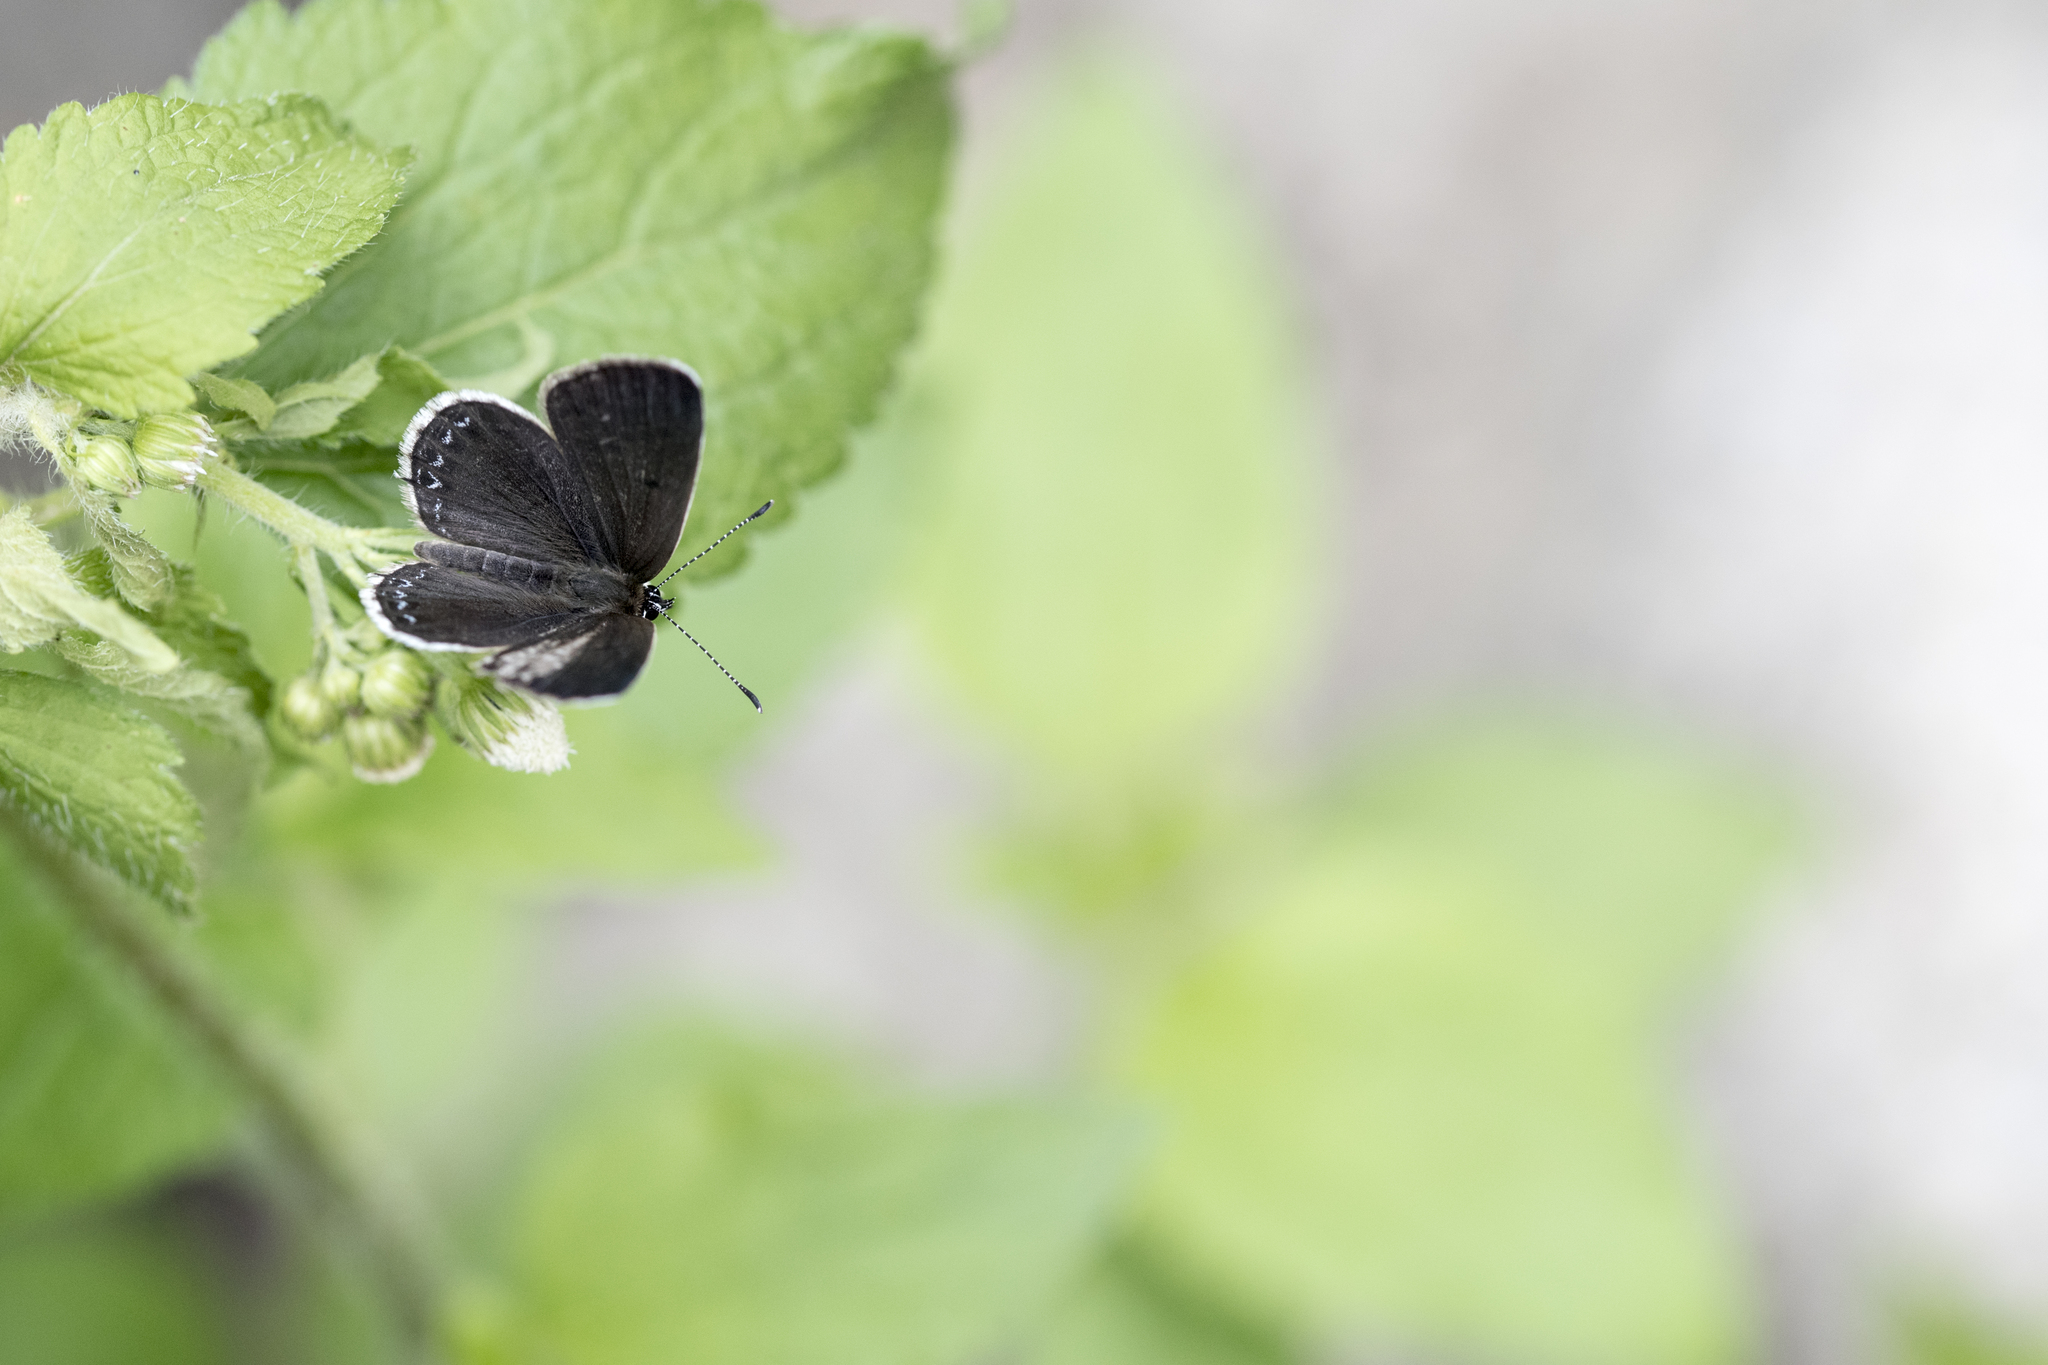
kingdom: Animalia
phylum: Arthropoda
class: Insecta
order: Lepidoptera
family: Lycaenidae
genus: Tongeia
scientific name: Tongeia hainani
